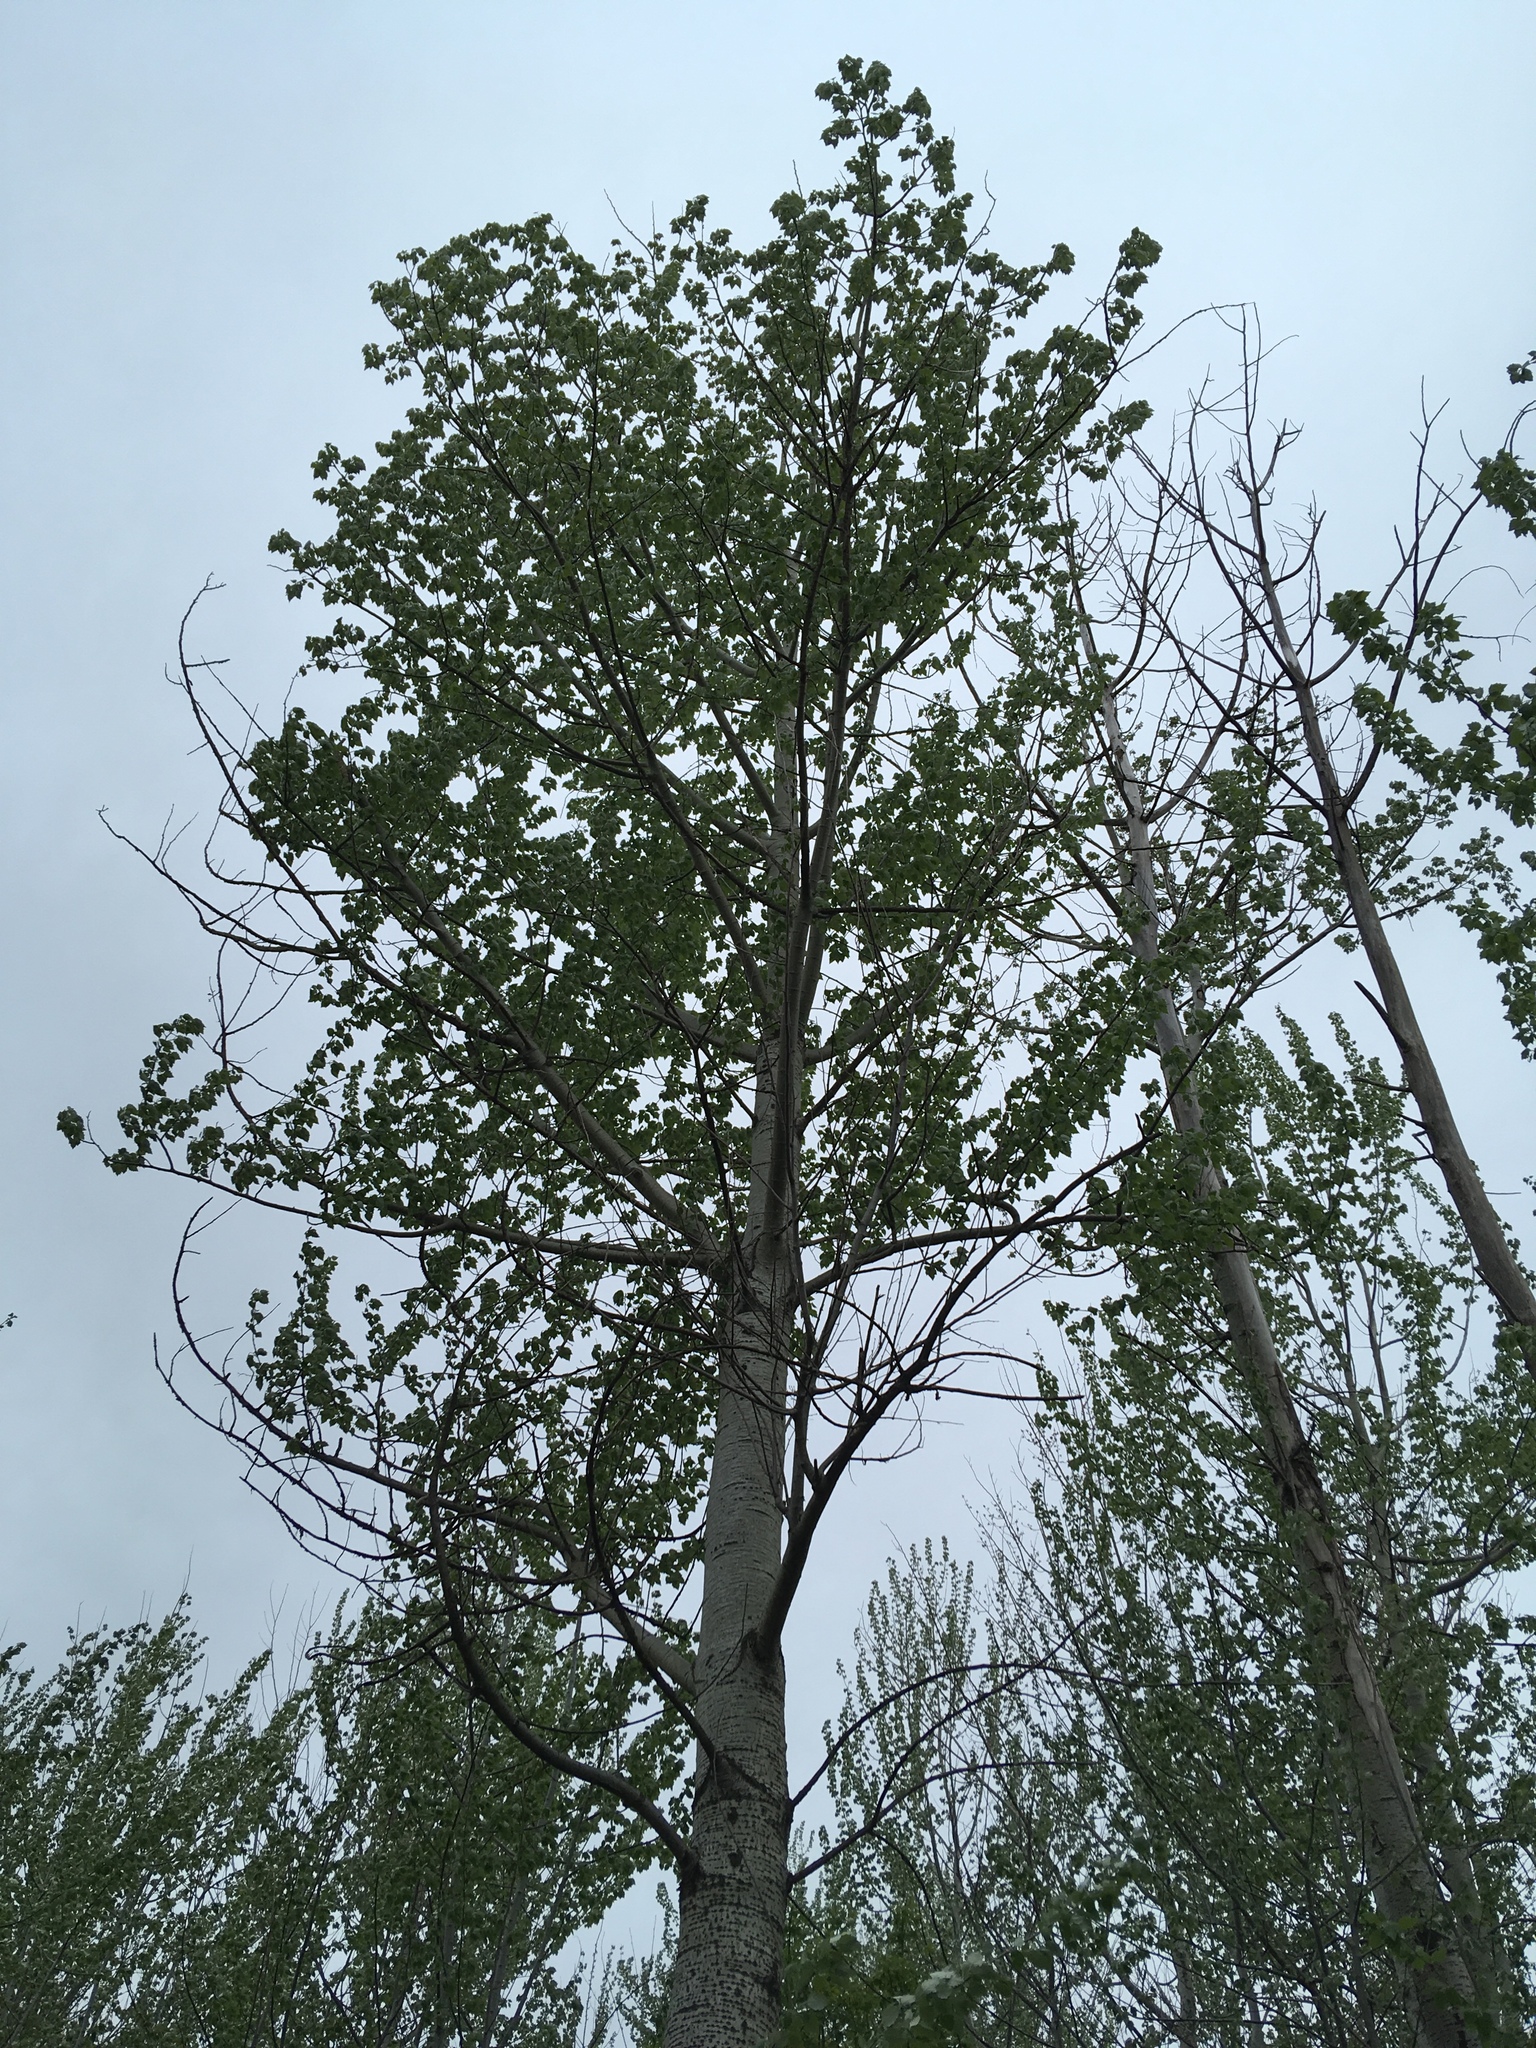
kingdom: Plantae
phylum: Tracheophyta
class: Magnoliopsida
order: Malpighiales
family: Salicaceae
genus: Populus
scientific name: Populus grandidentata
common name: Bigtooth aspen
